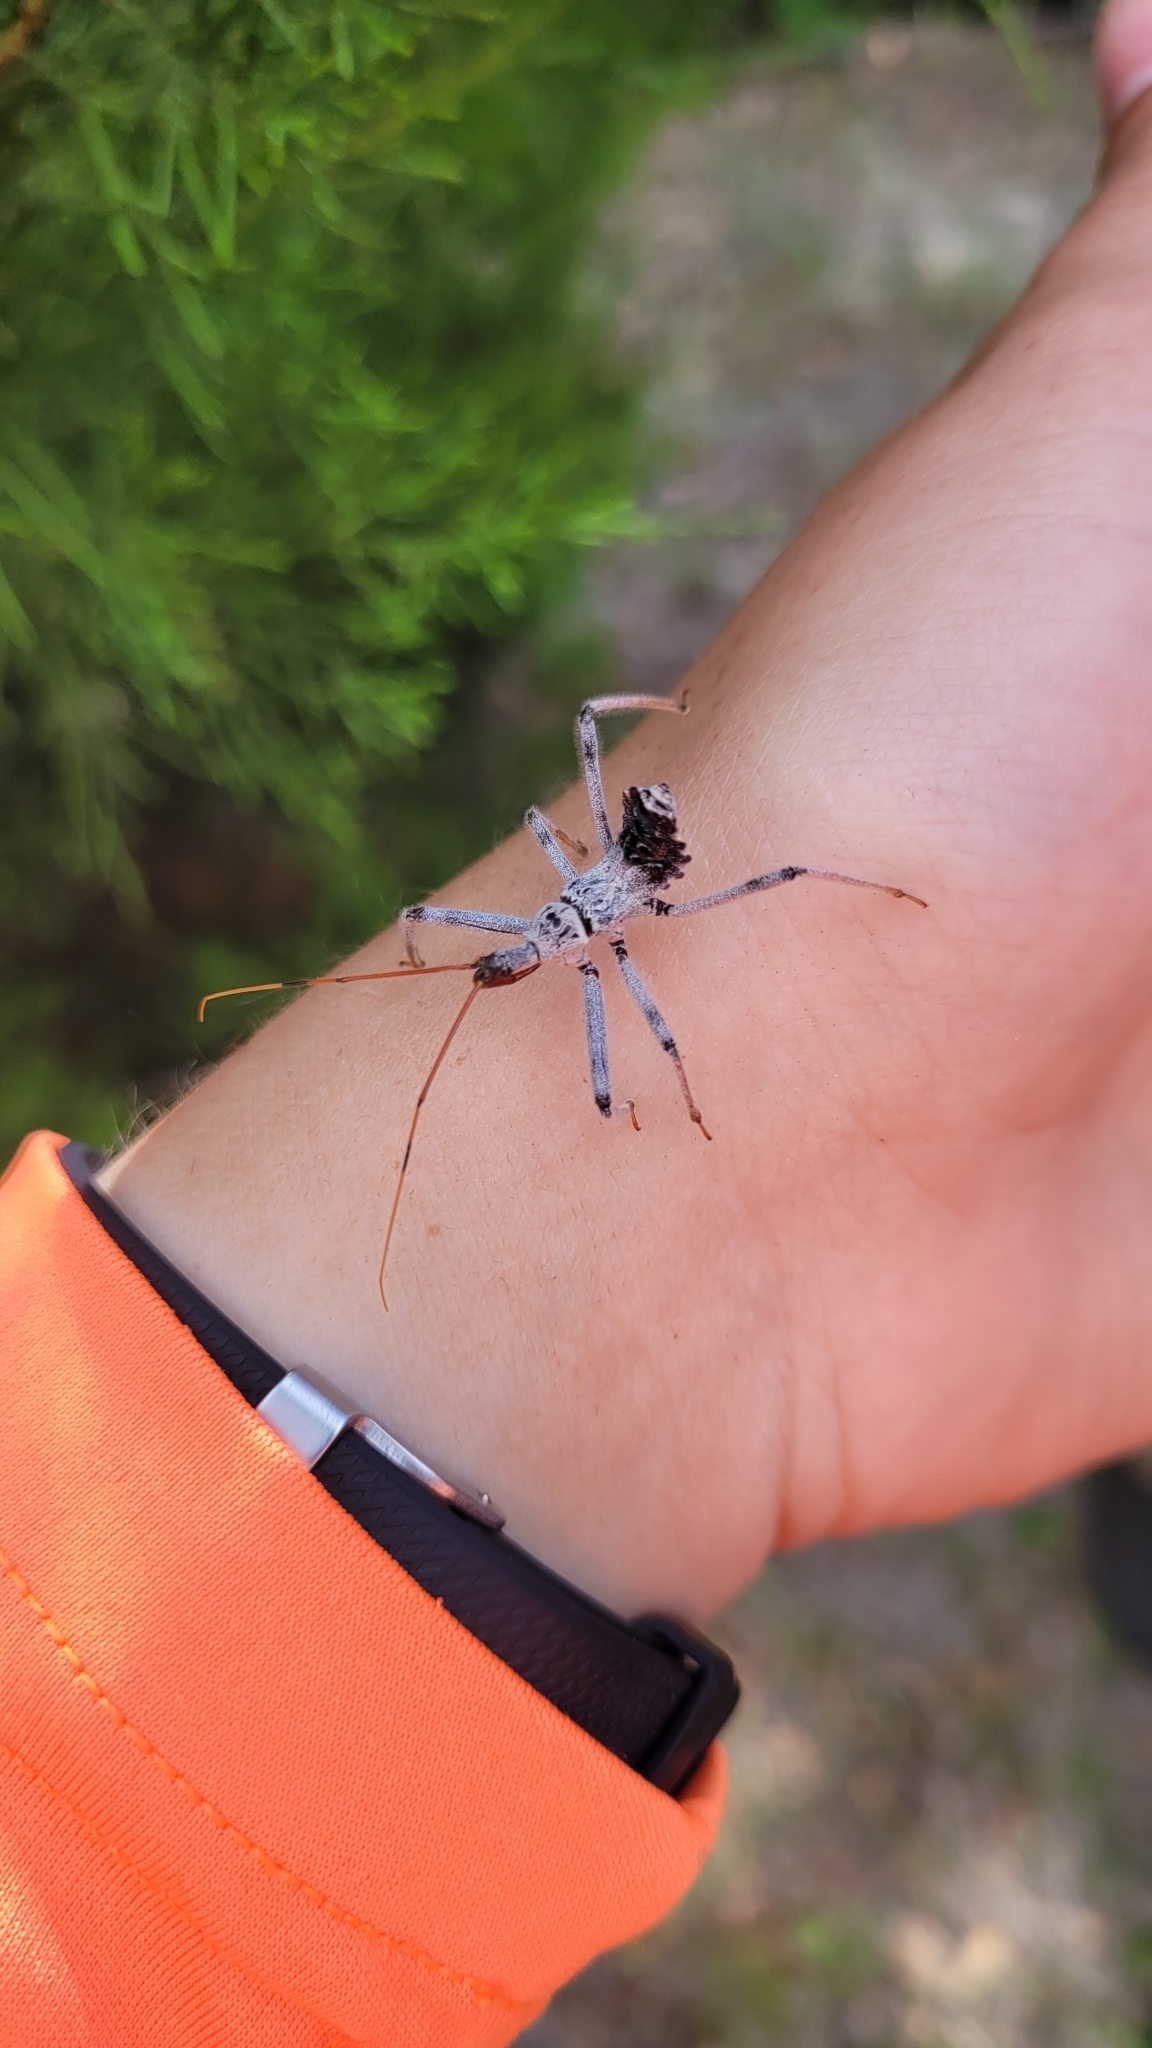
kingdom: Animalia
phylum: Arthropoda
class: Insecta
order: Hemiptera
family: Reduviidae
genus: Arilus
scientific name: Arilus cristatus
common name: North american wheel bug
